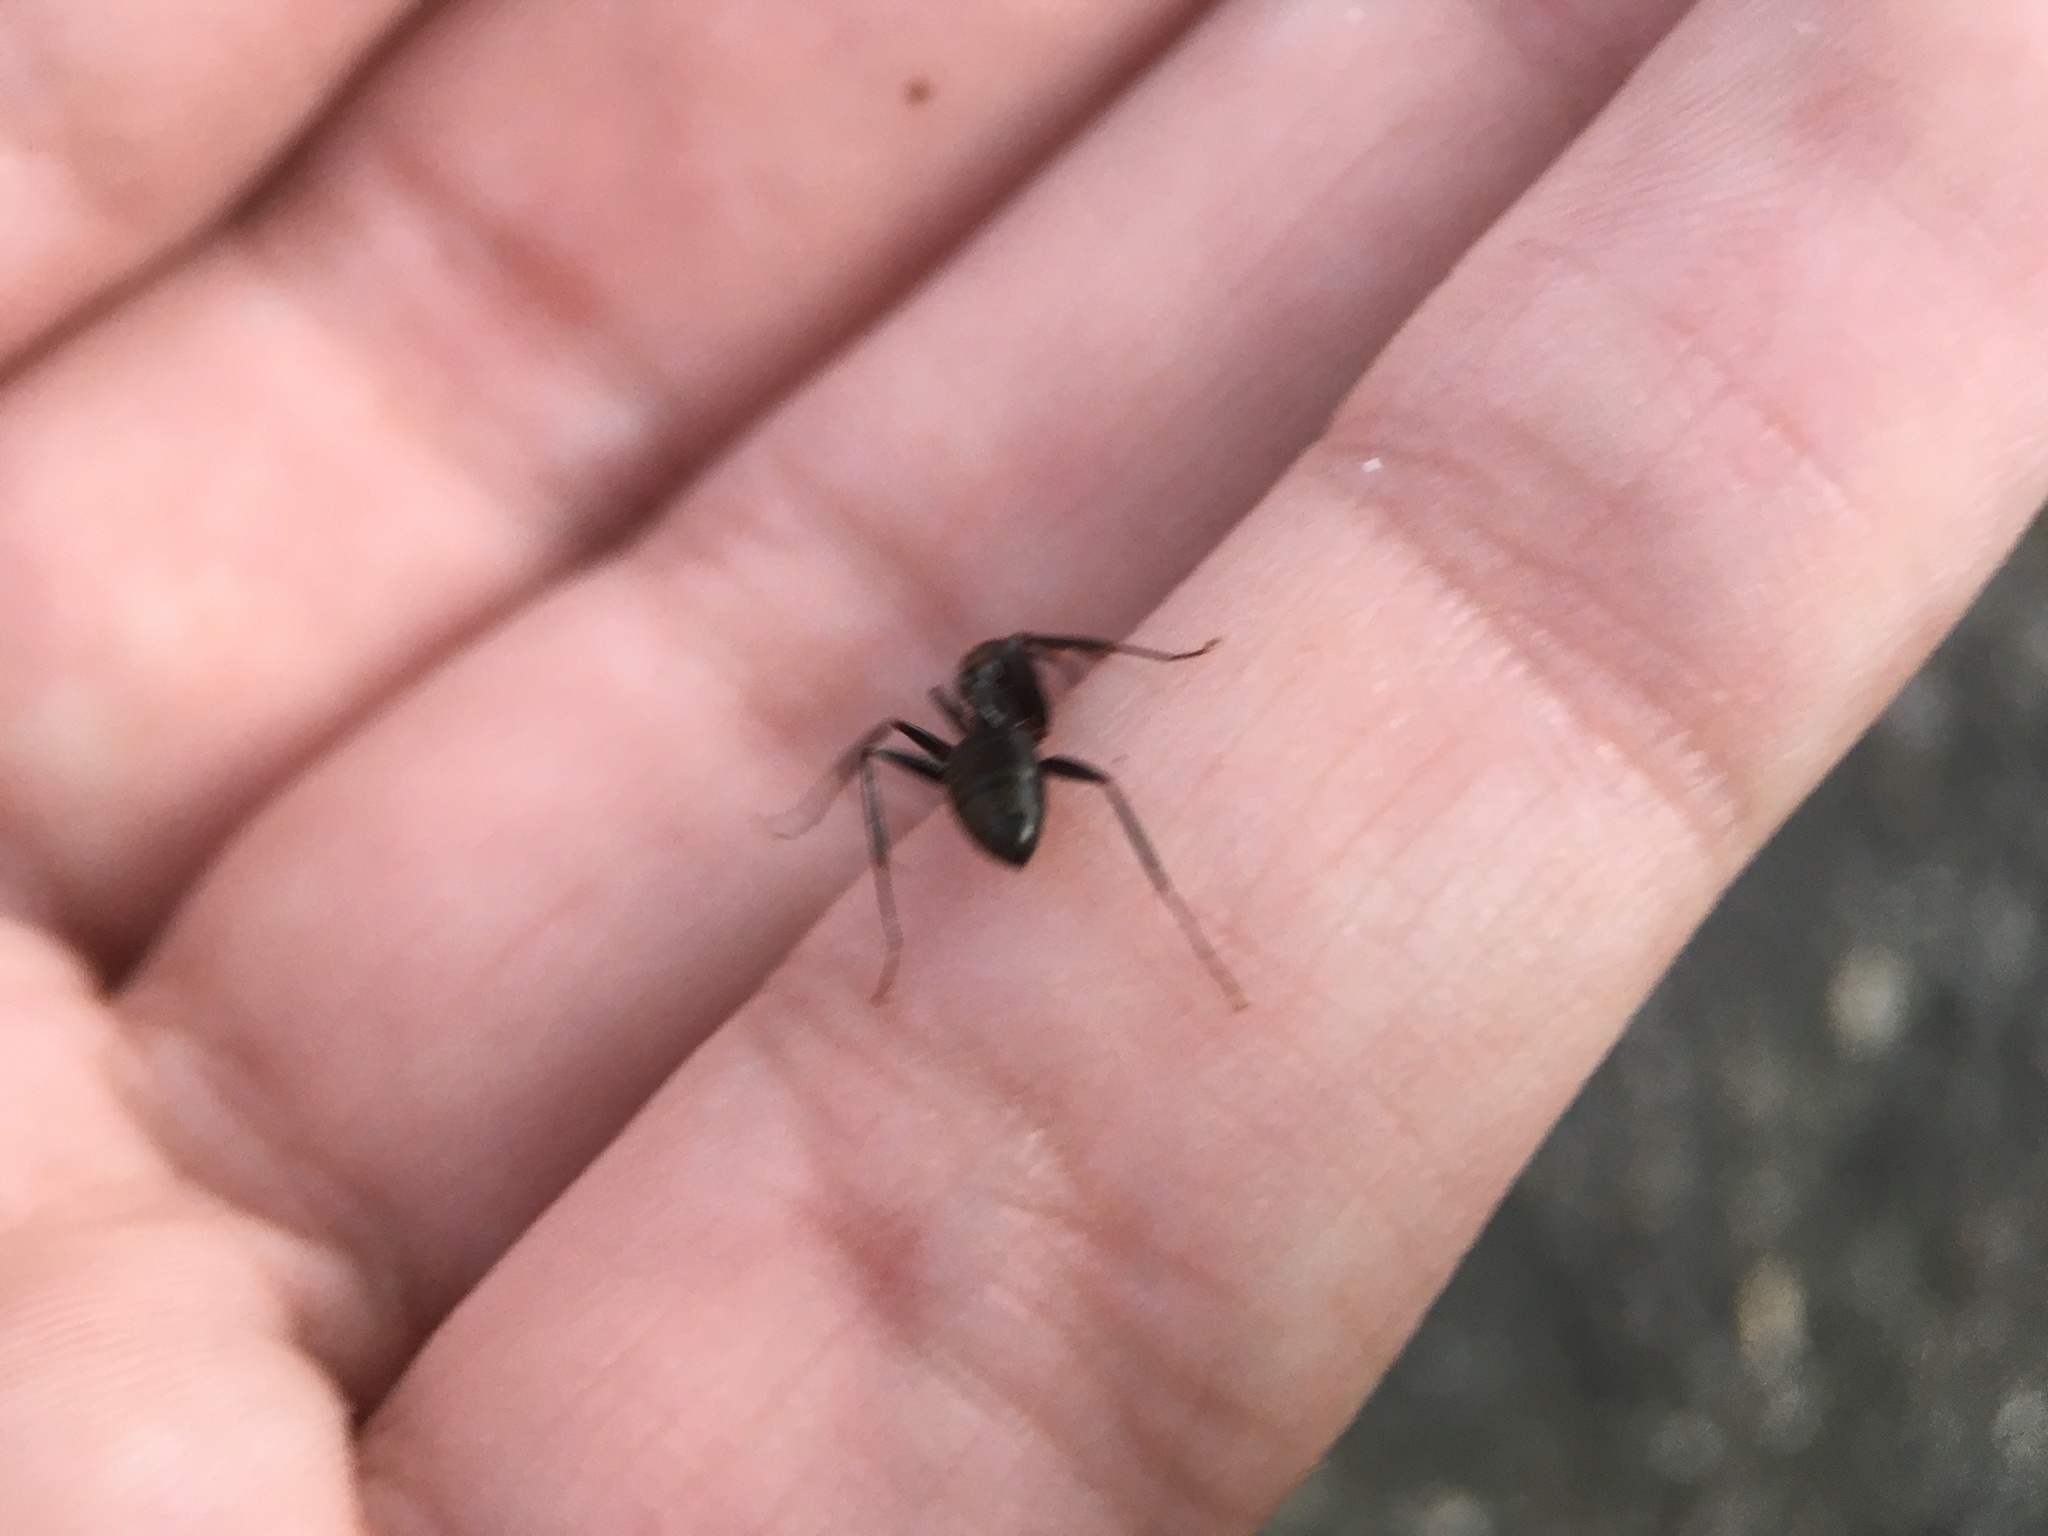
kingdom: Animalia
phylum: Arthropoda
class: Insecta
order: Hymenoptera
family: Formicidae
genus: Camponotus
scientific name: Camponotus pennsylvanicus
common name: Black carpenter ant
